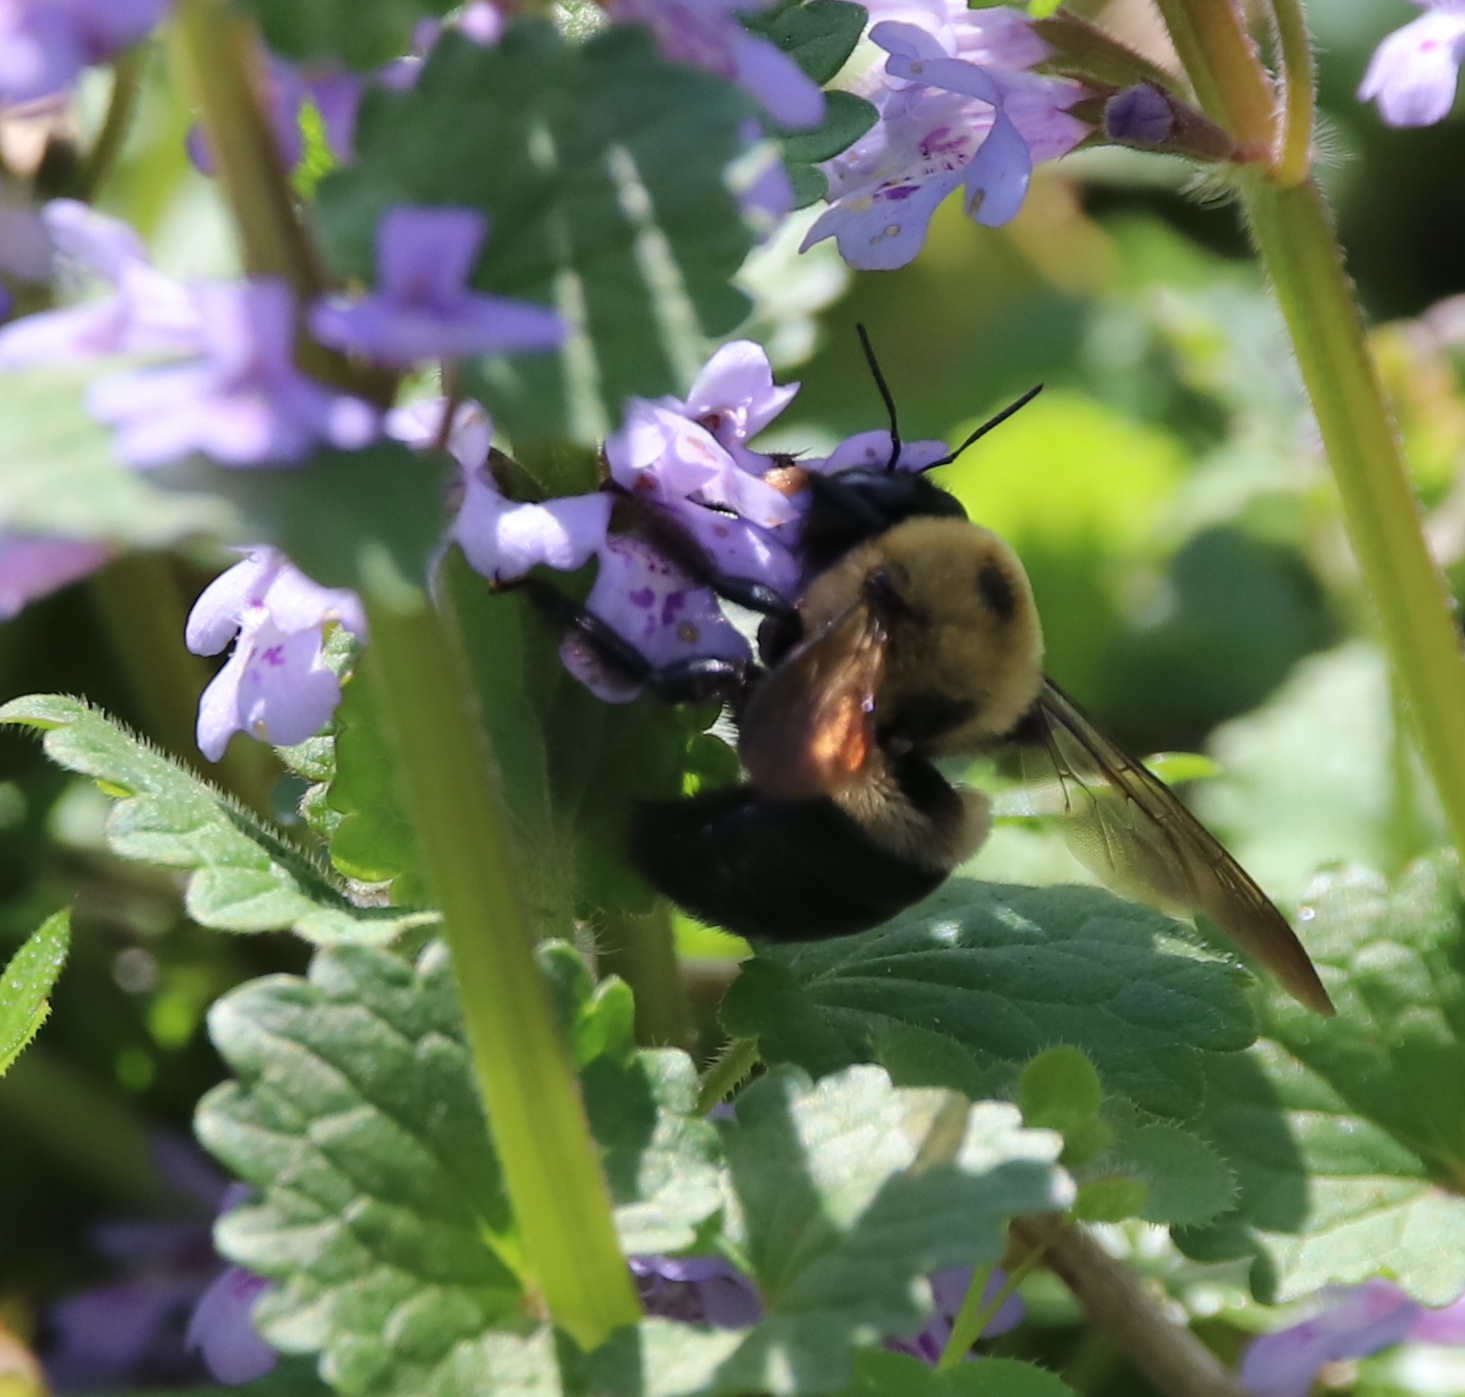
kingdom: Animalia
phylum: Arthropoda
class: Insecta
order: Hymenoptera
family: Apidae
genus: Xylocopa
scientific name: Xylocopa virginica
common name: Carpenter bee
